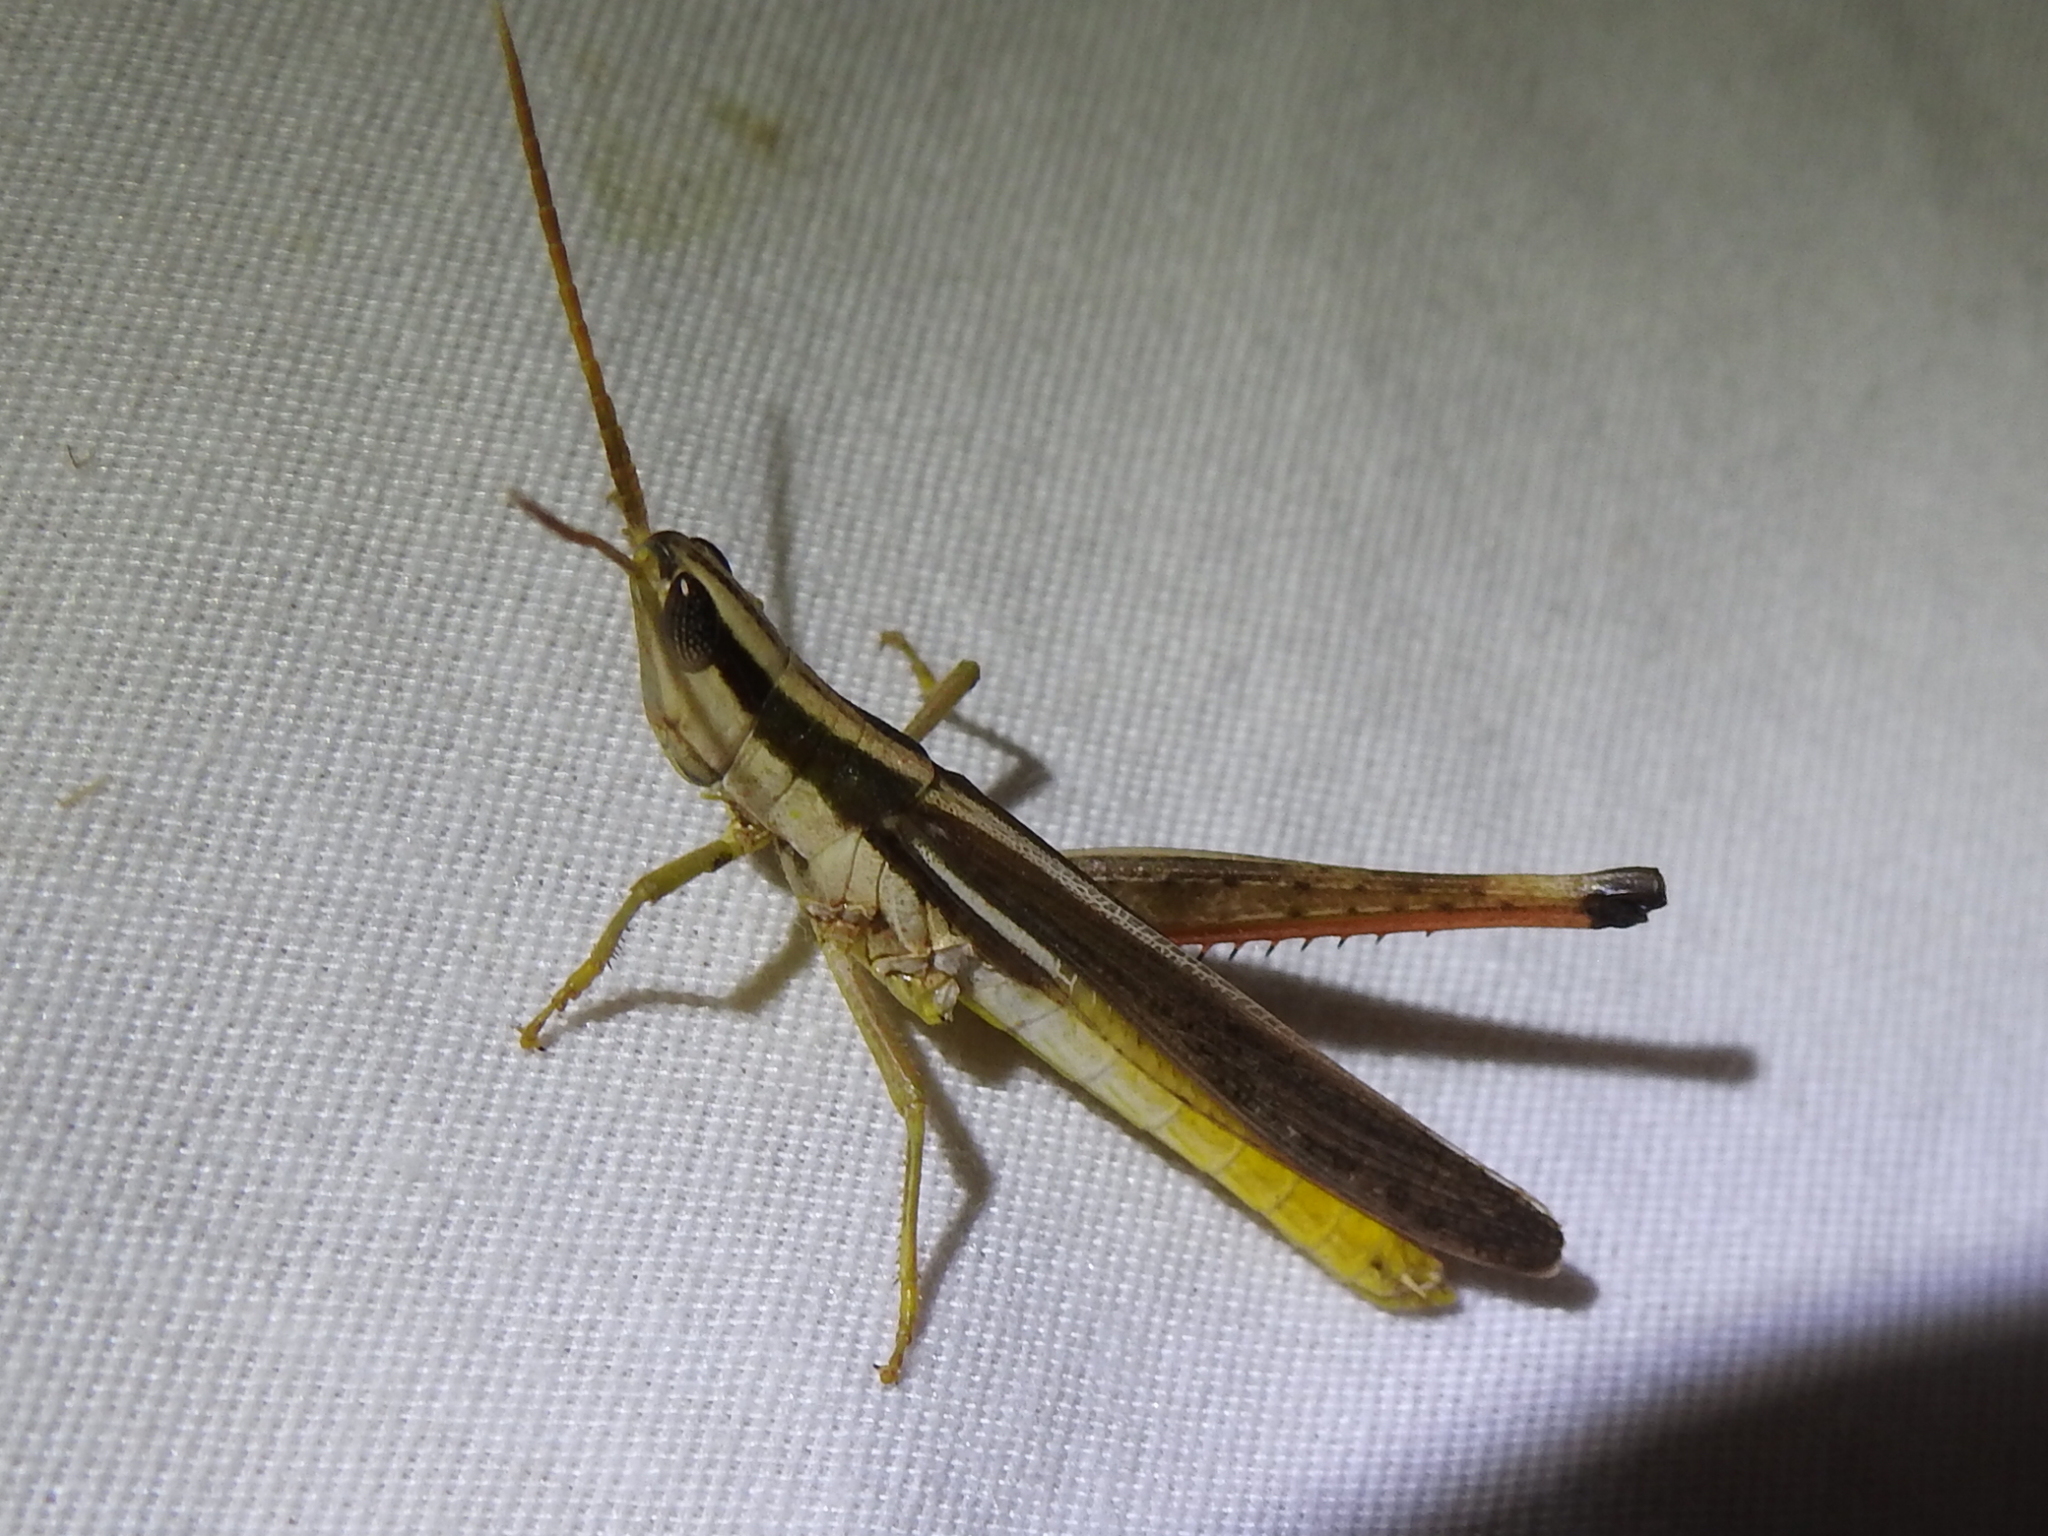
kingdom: Animalia
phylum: Arthropoda
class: Insecta
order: Orthoptera
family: Acrididae
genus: Mermiria
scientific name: Mermiria bivittata
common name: Two-striped mermiria grasshopper
